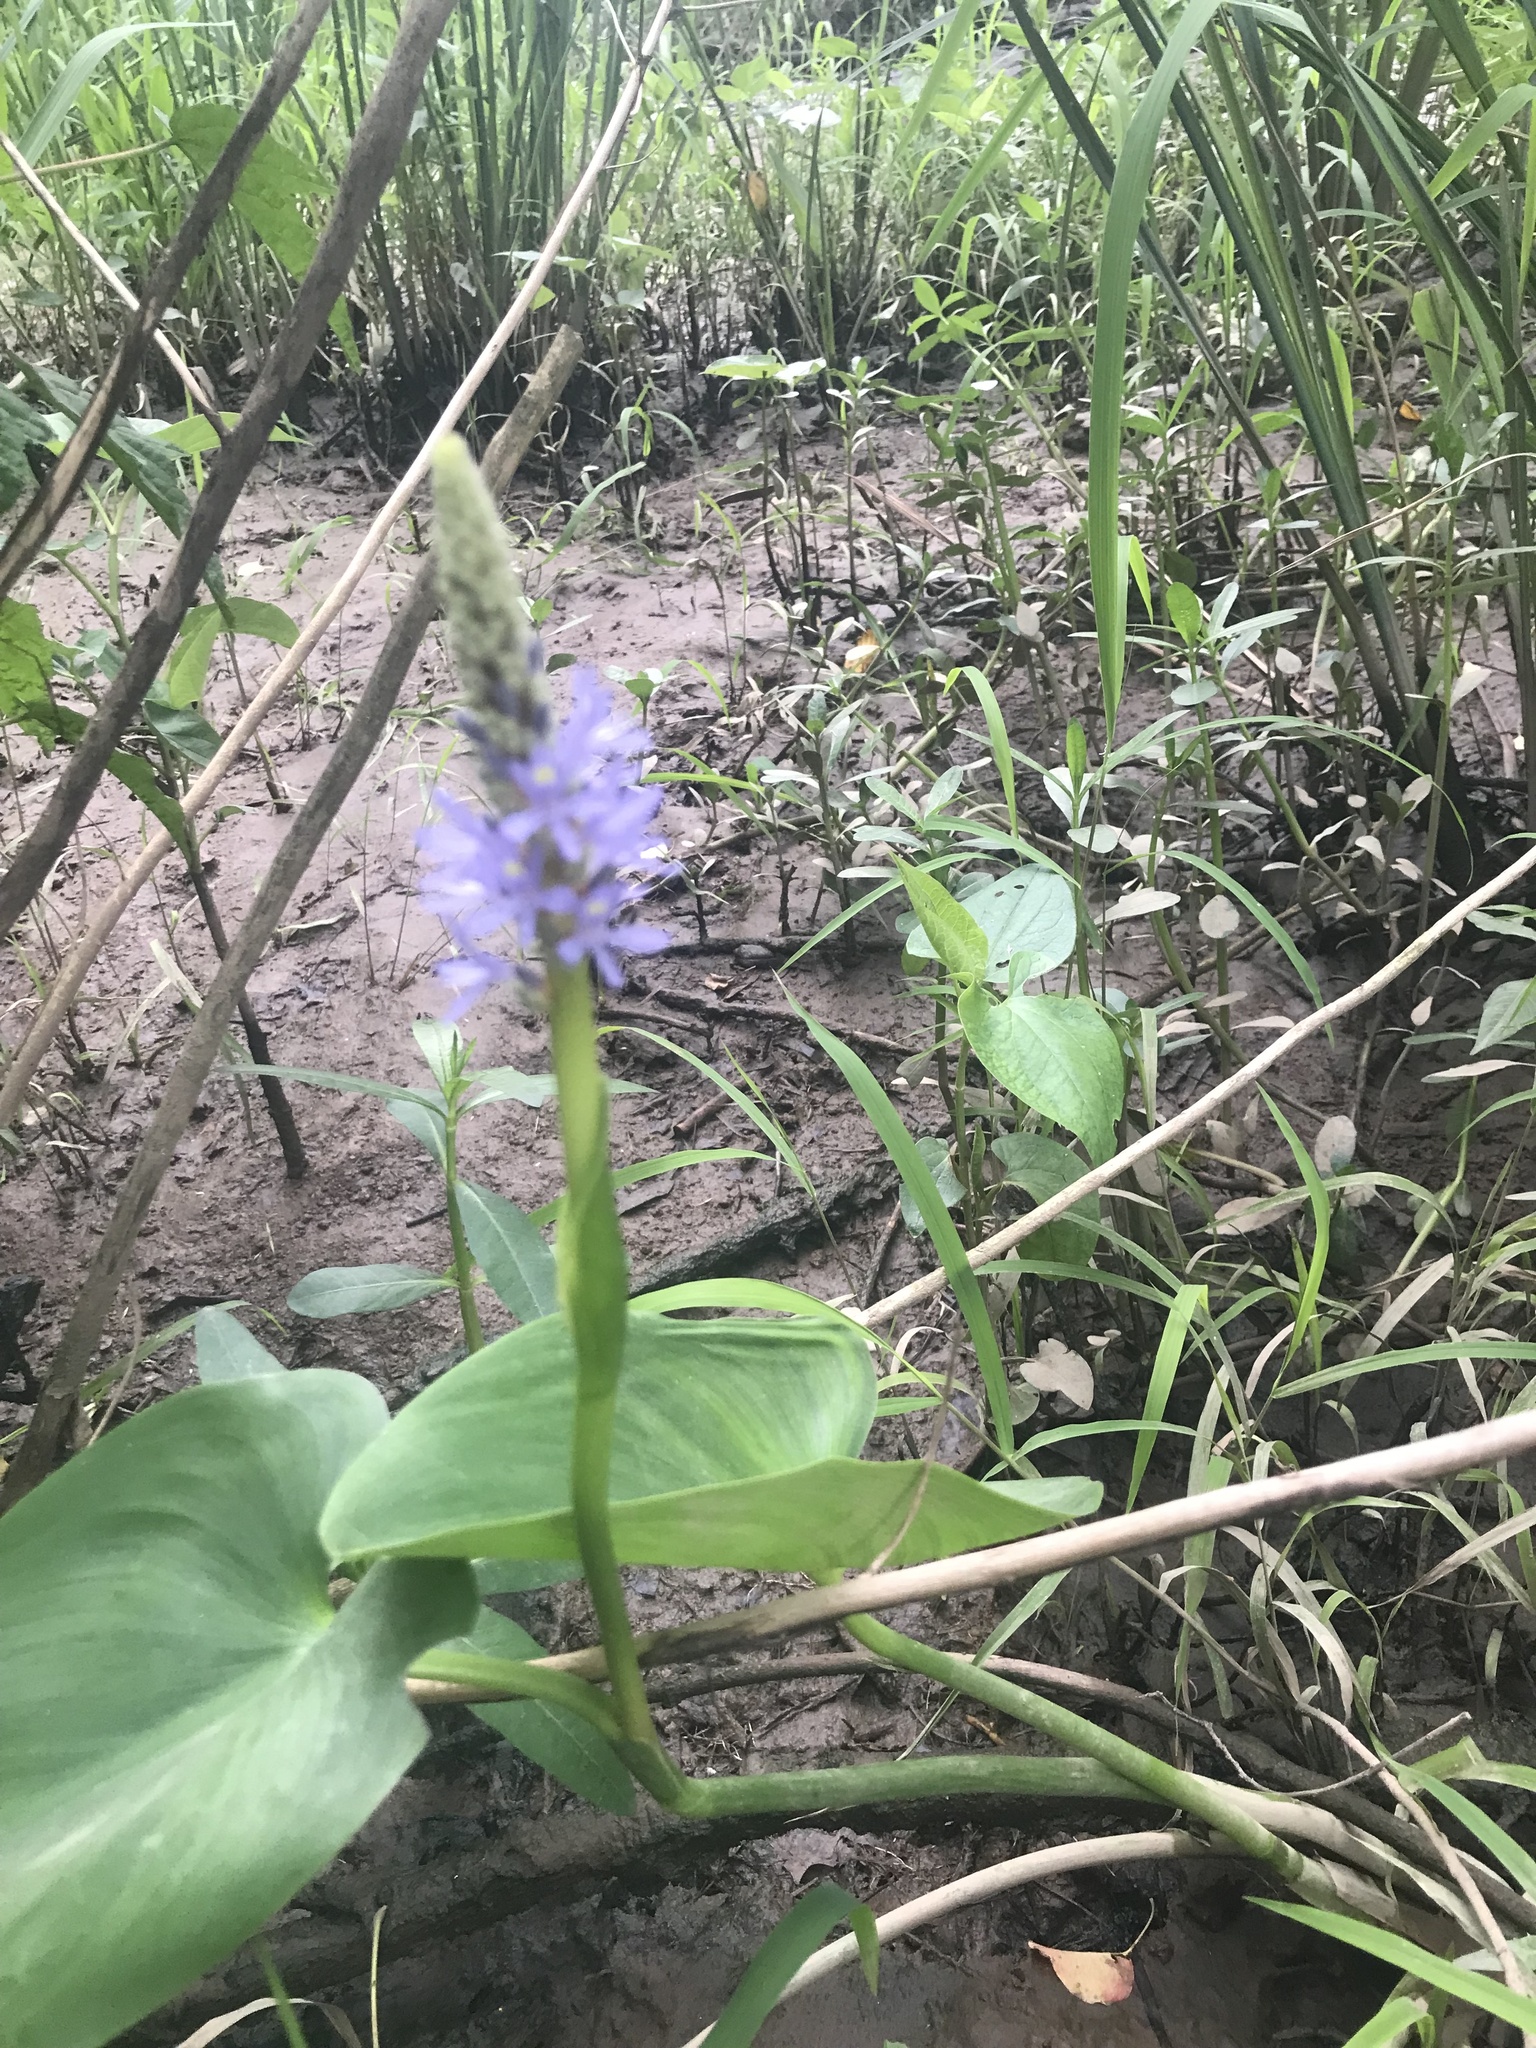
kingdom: Plantae
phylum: Tracheophyta
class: Liliopsida
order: Commelinales
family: Pontederiaceae
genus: Pontederia
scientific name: Pontederia cordata
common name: Pickerelweed
